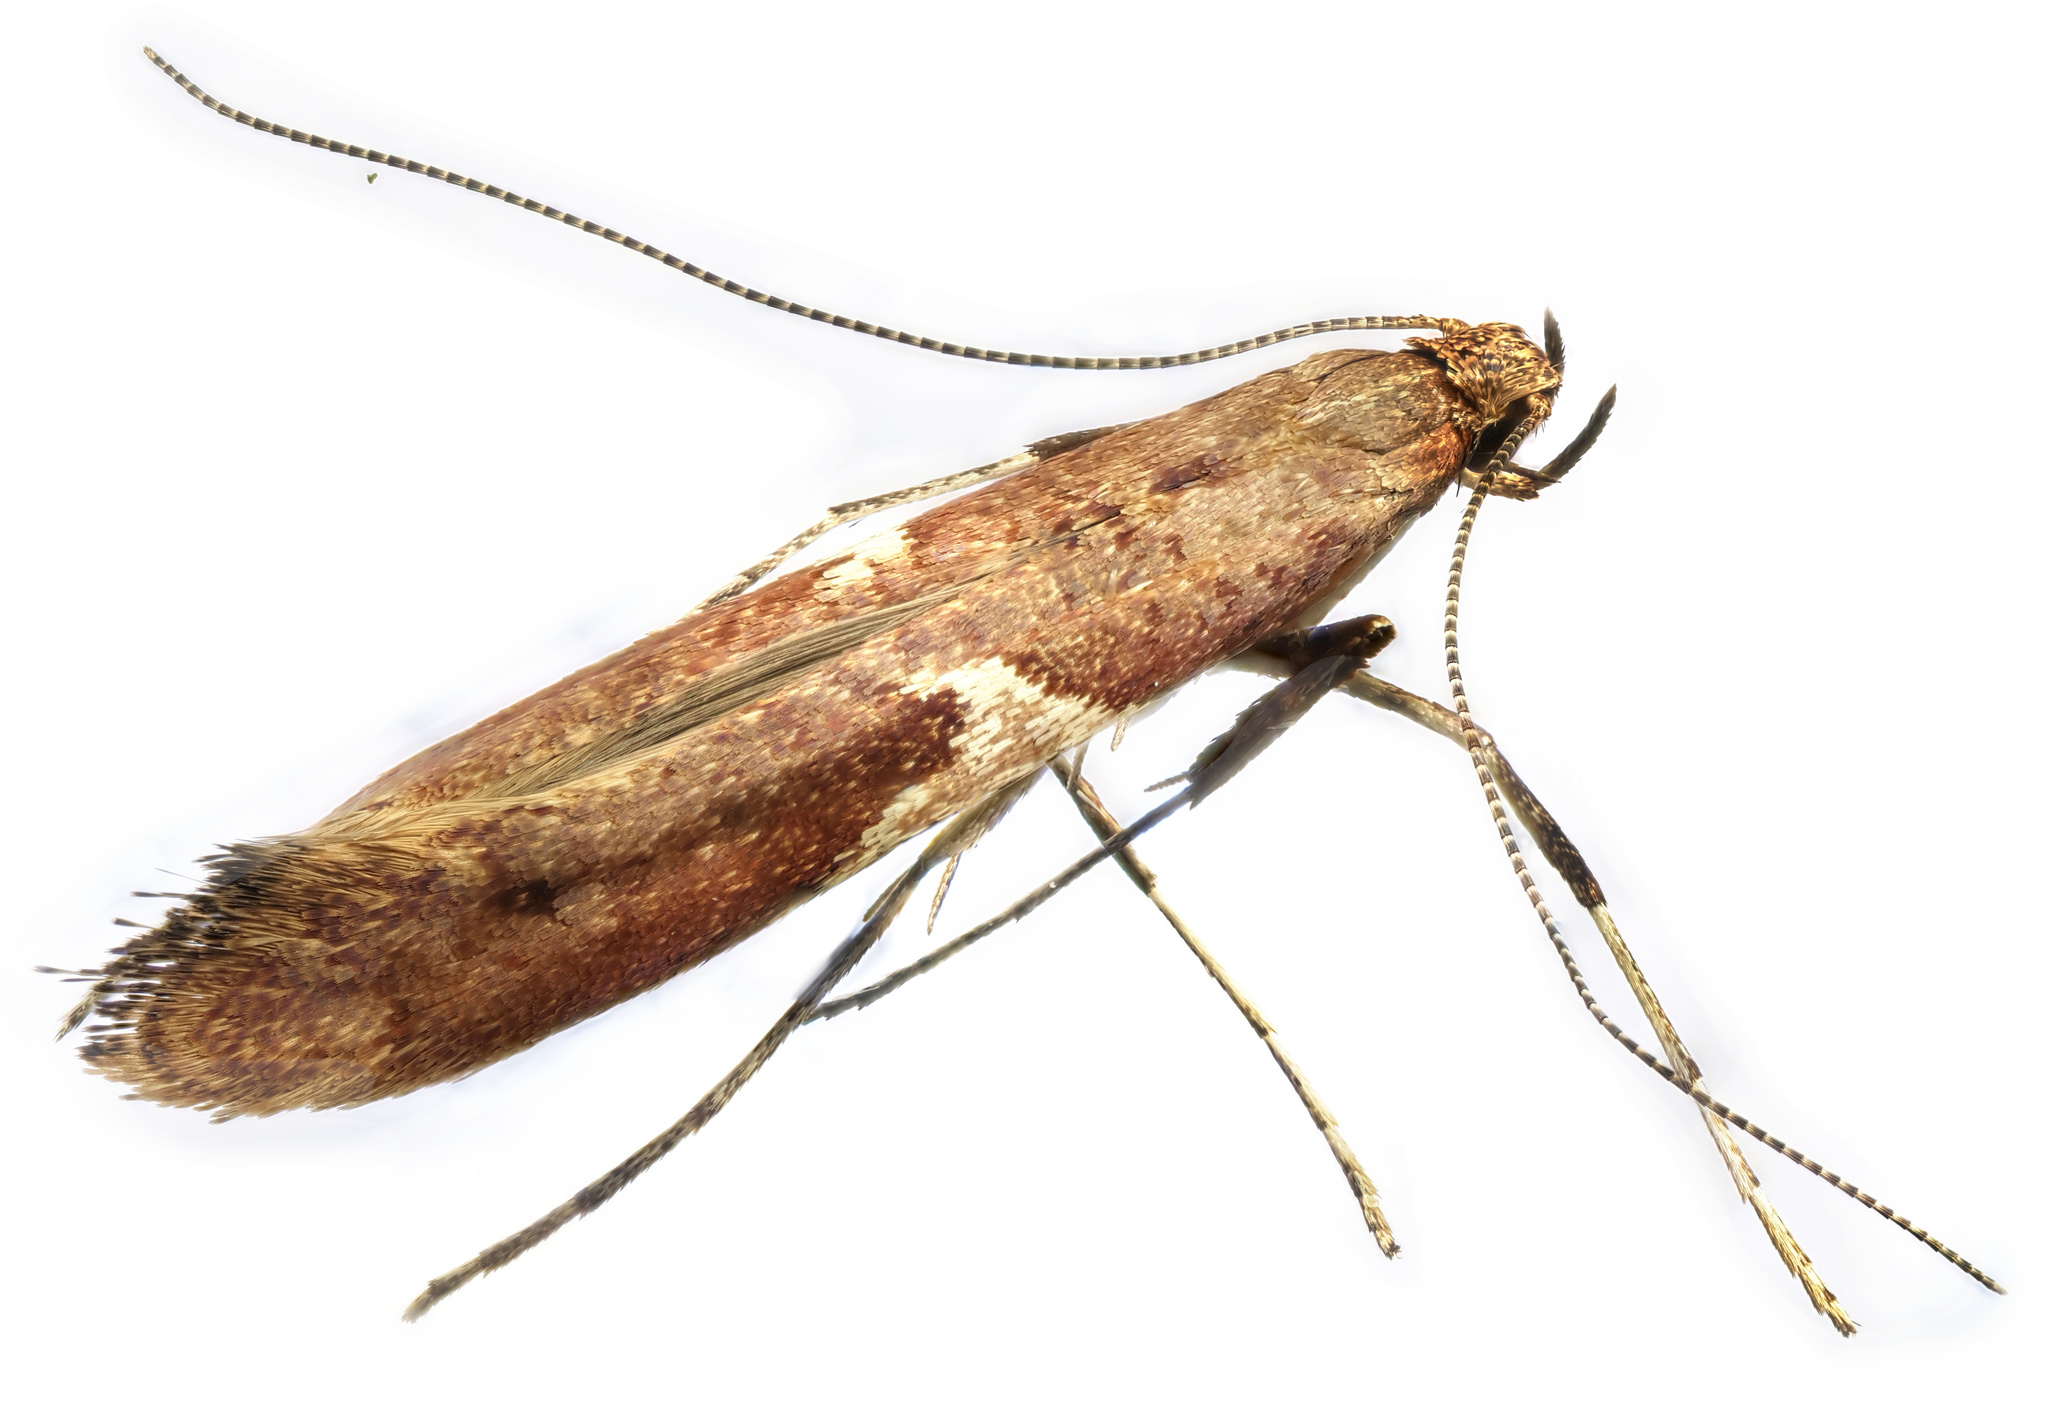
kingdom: Animalia
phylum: Arthropoda
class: Insecta
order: Lepidoptera
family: Gracillariidae
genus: Caloptilia
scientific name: Caloptilia stigmatella
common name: White-triangle slender
